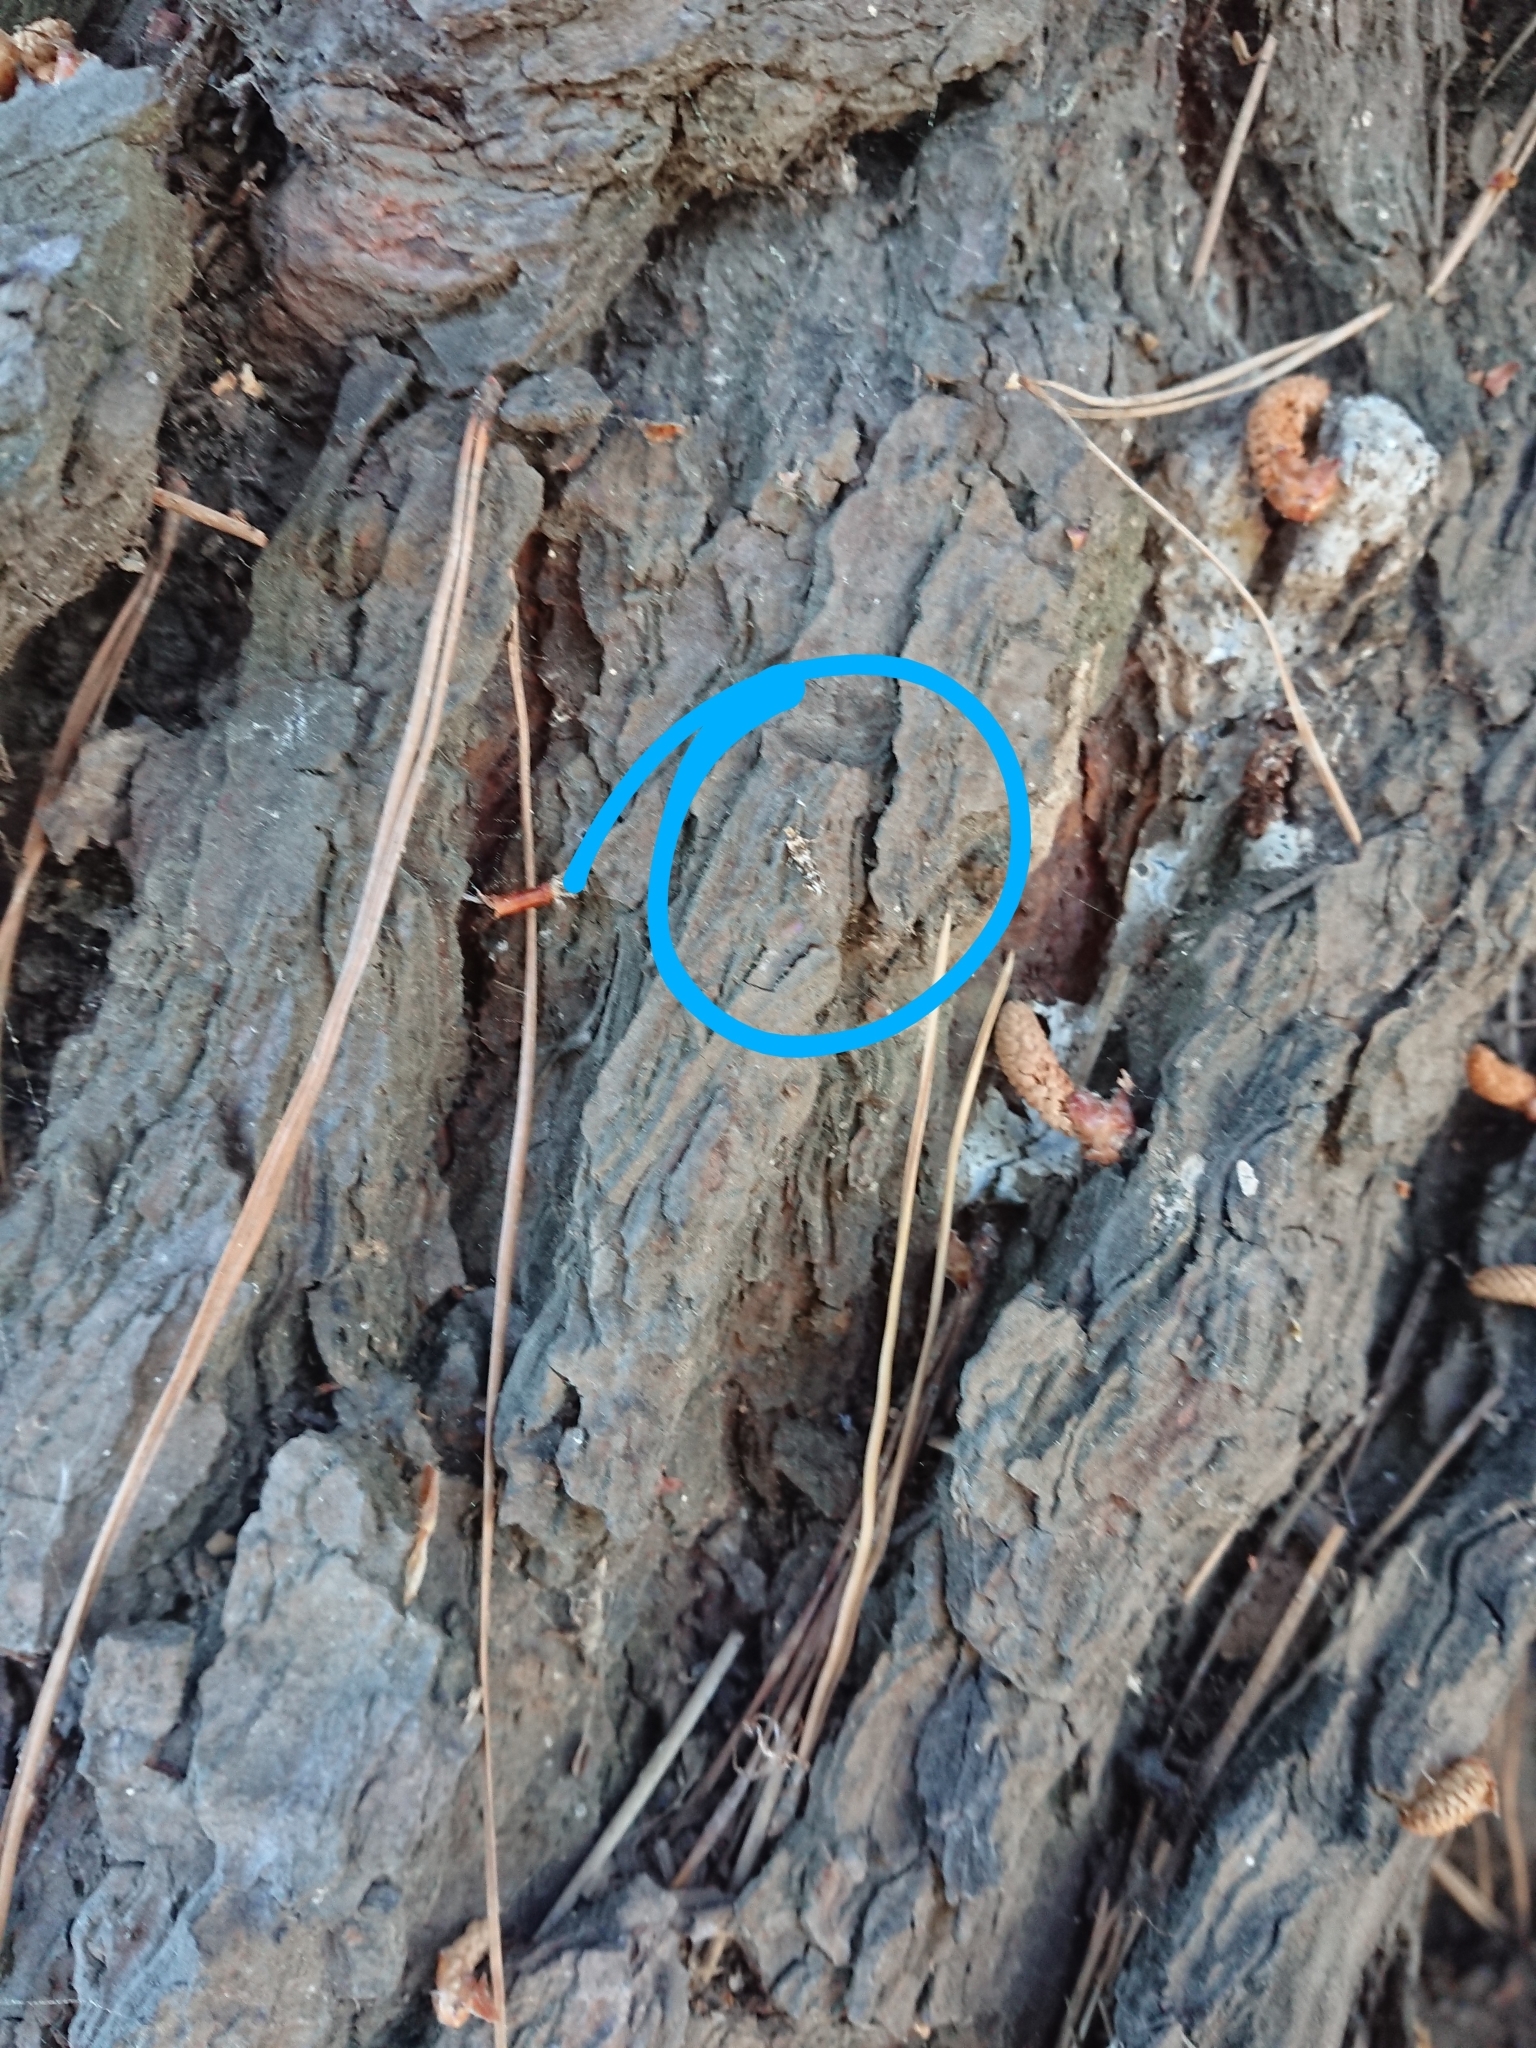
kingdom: Animalia
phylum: Arthropoda
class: Insecta
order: Lepidoptera
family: Dryadaulidae
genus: Dryadaula
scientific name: Dryadaula pactolia
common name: Cellar clothes
